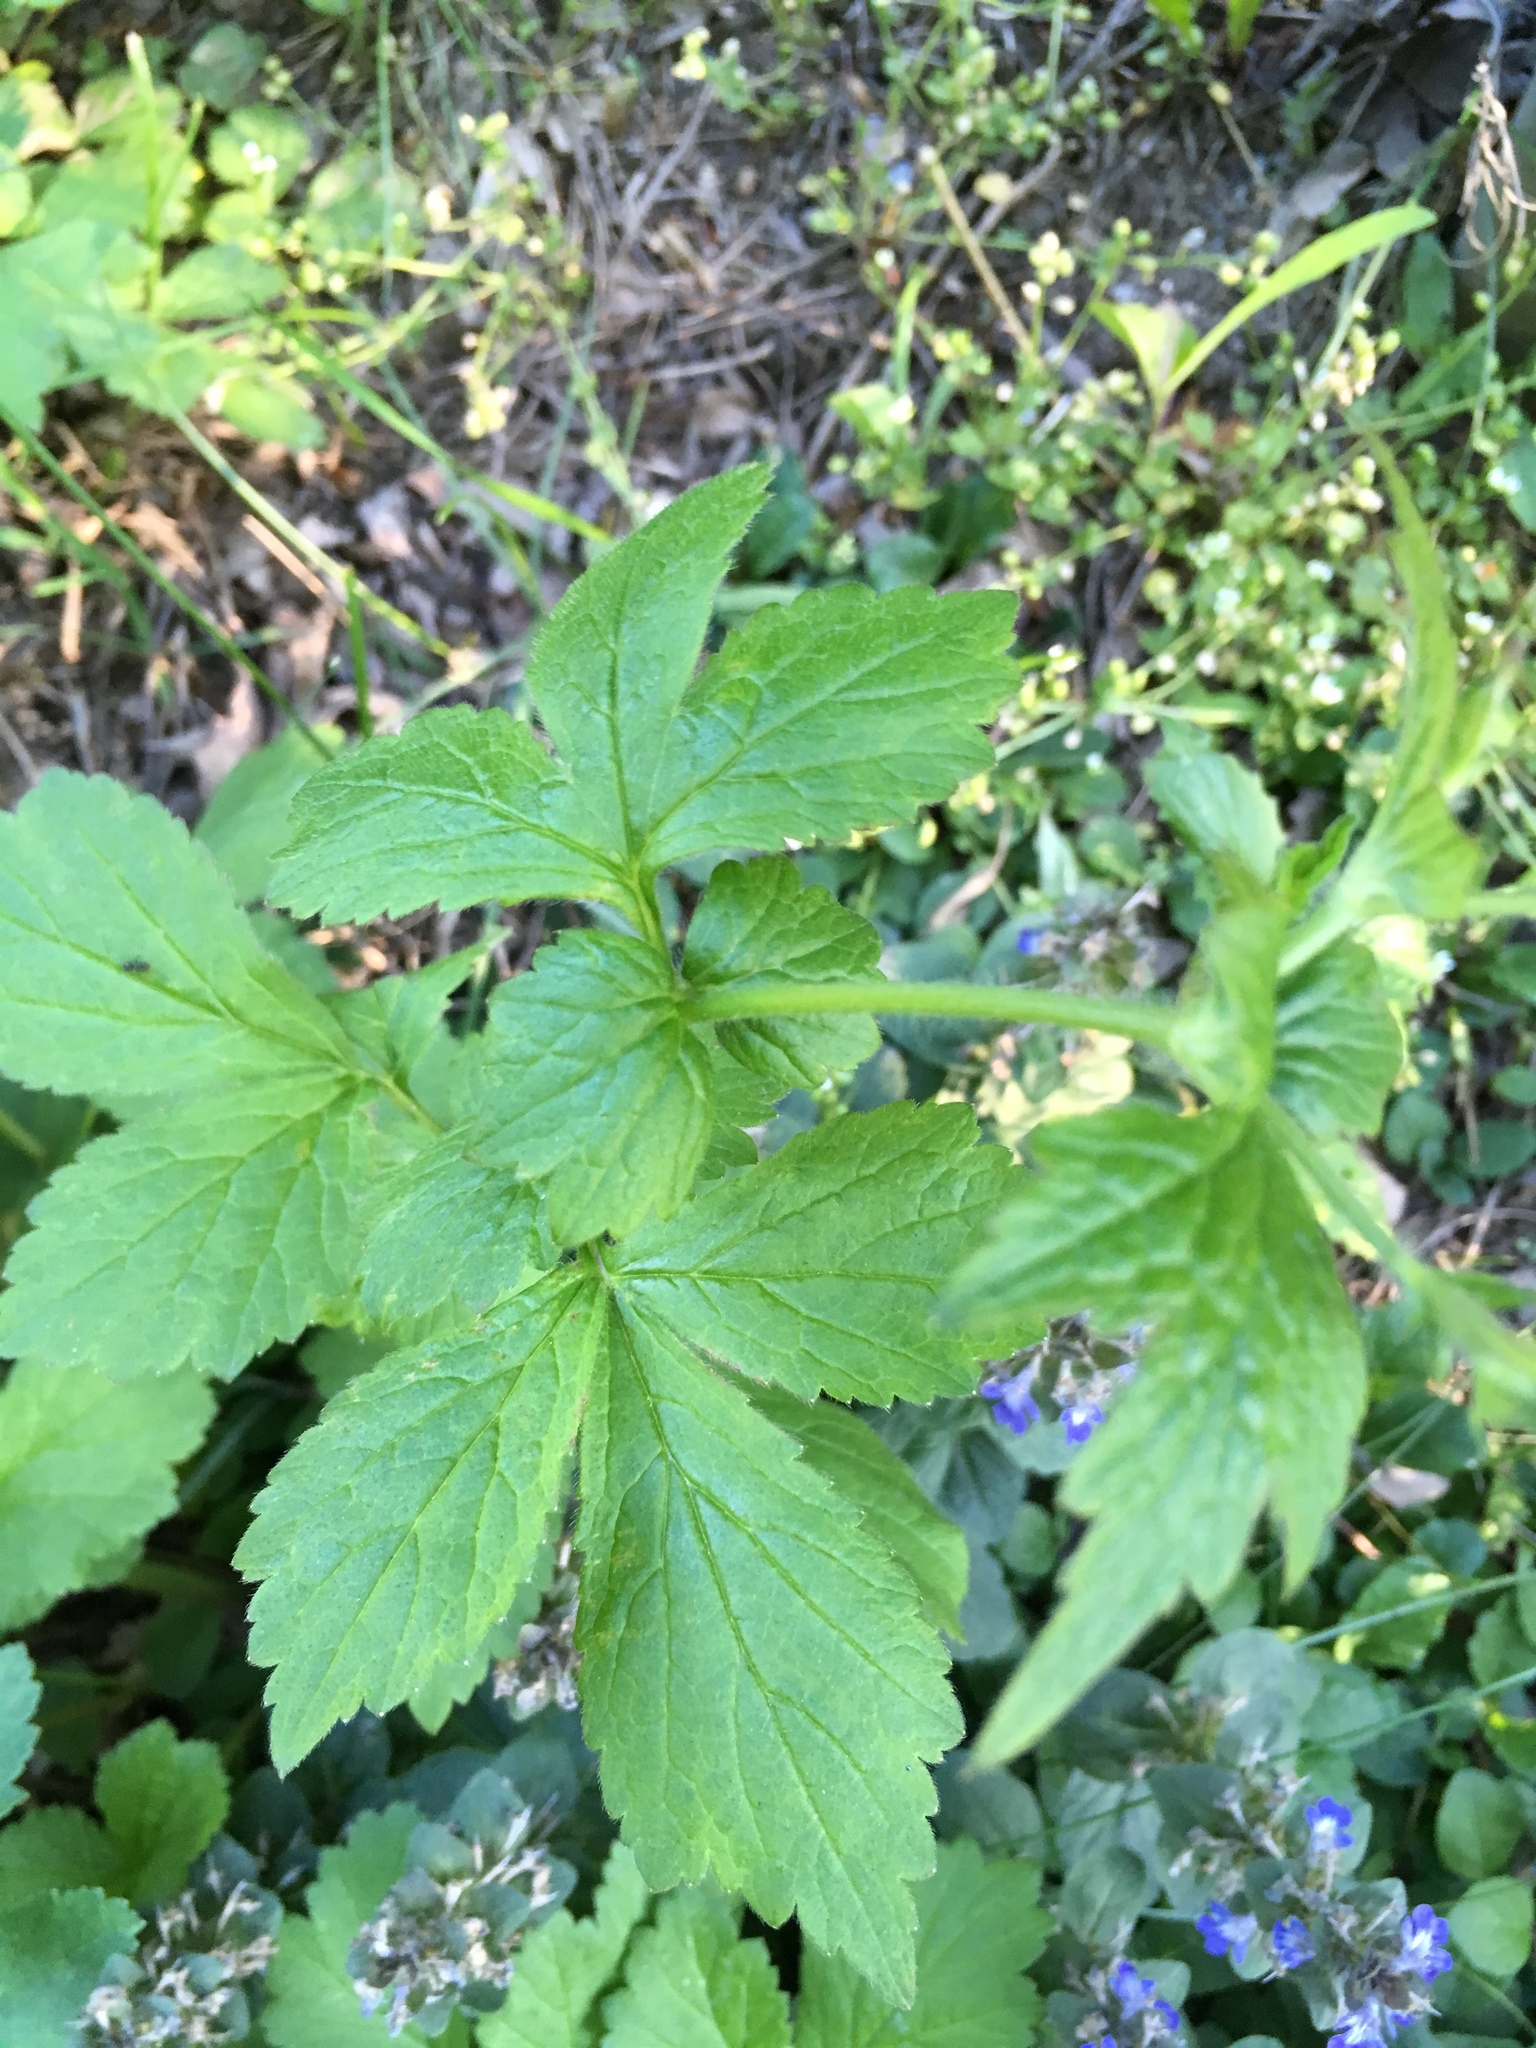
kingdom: Plantae
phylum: Tracheophyta
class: Magnoliopsida
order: Rosales
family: Rosaceae
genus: Geum
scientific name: Geum urbanum
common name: Wood avens
